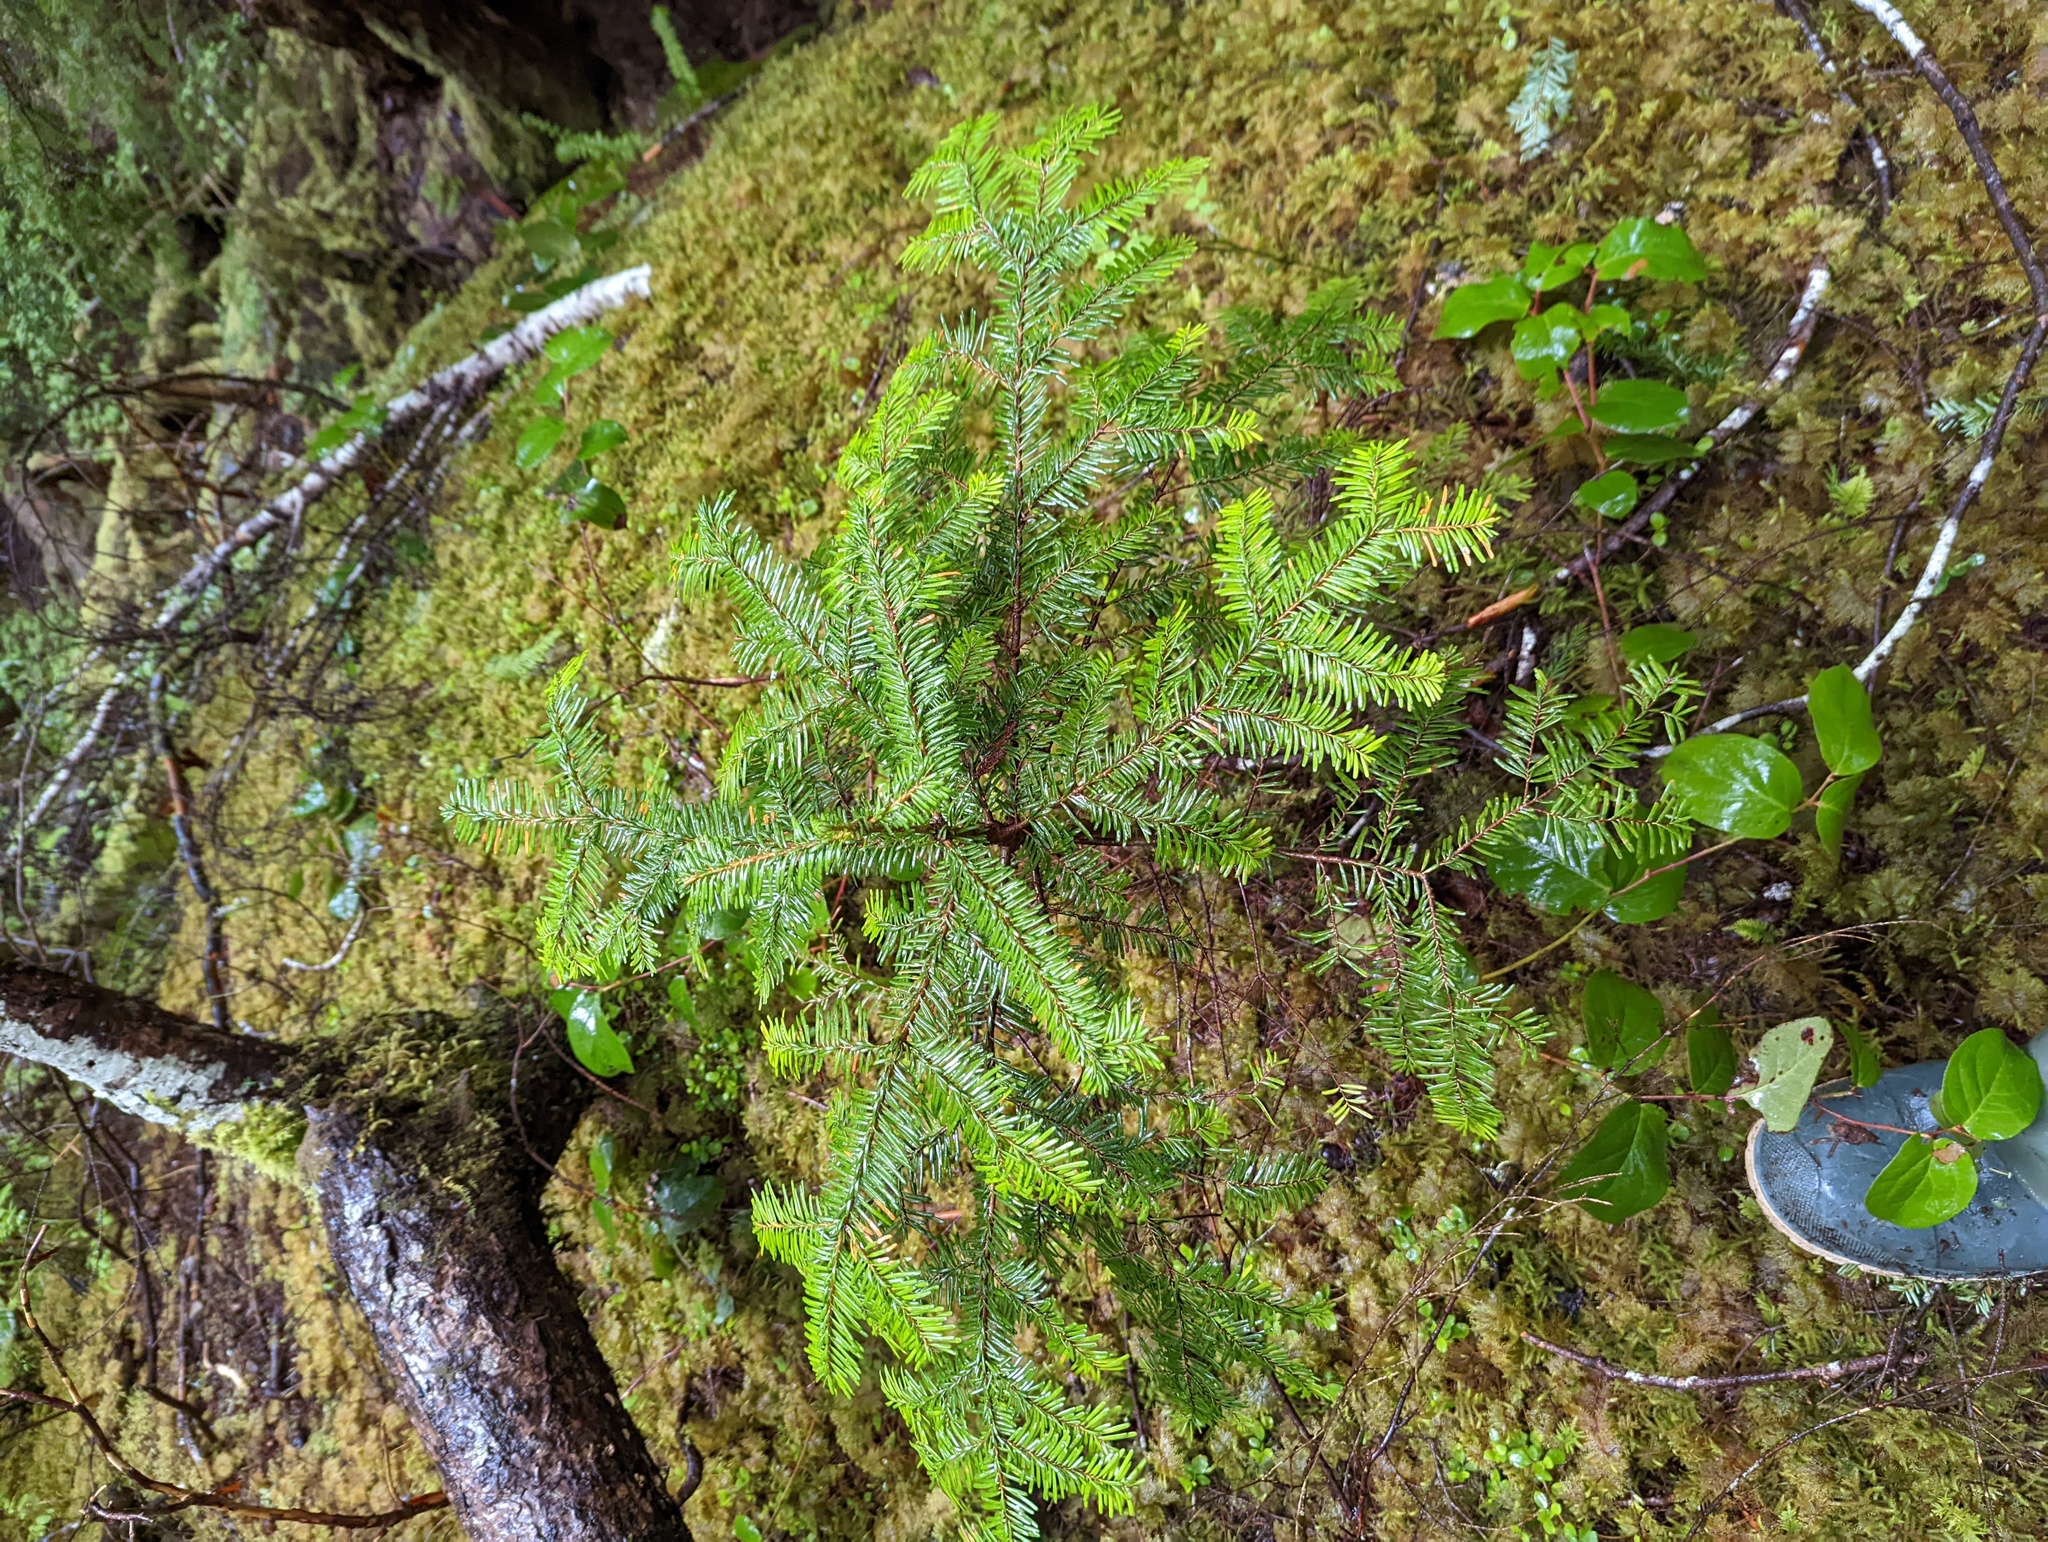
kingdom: Plantae
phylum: Tracheophyta
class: Pinopsida
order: Pinales
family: Pinaceae
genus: Abies
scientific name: Abies amabilis
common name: Pacific silver fir
